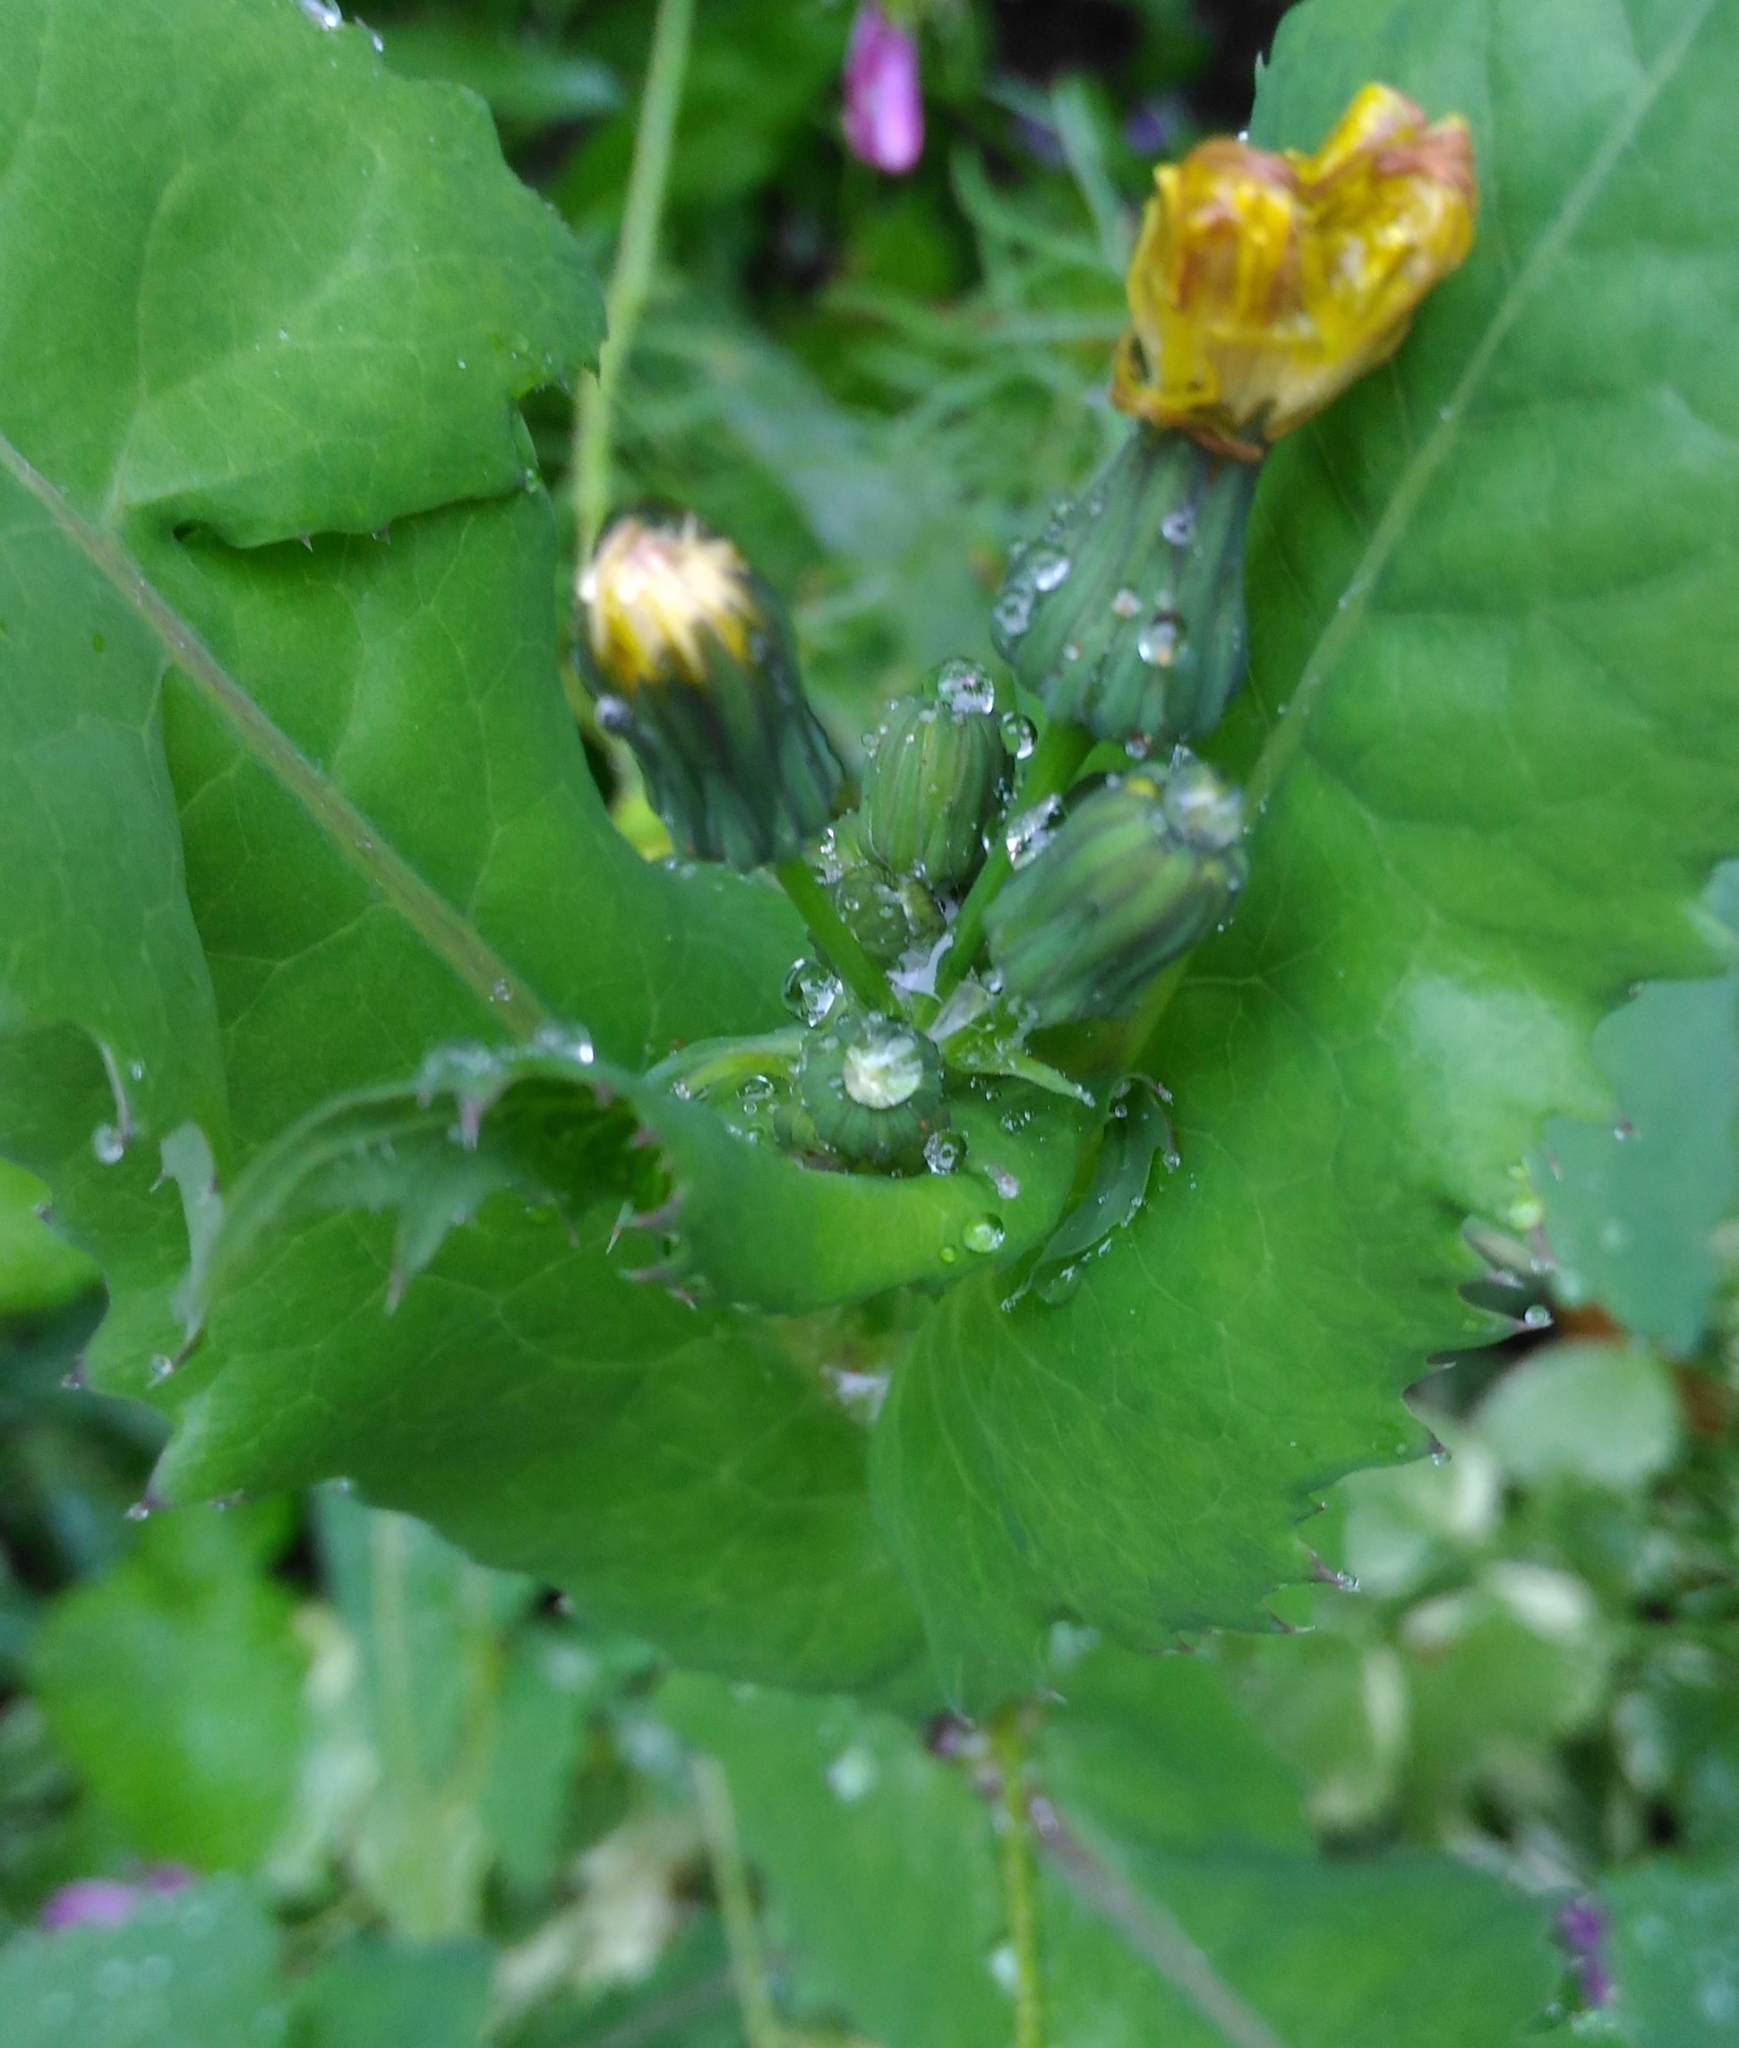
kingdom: Plantae
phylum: Tracheophyta
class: Magnoliopsida
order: Asterales
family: Asteraceae
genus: Sonchus
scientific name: Sonchus oleraceus
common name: Common sowthistle
